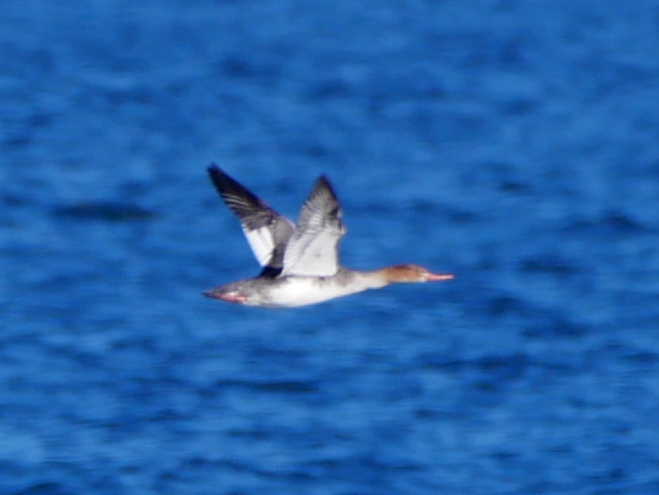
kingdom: Animalia
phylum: Chordata
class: Aves
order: Anseriformes
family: Anatidae
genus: Mergus
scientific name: Mergus serrator
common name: Red-breasted merganser
